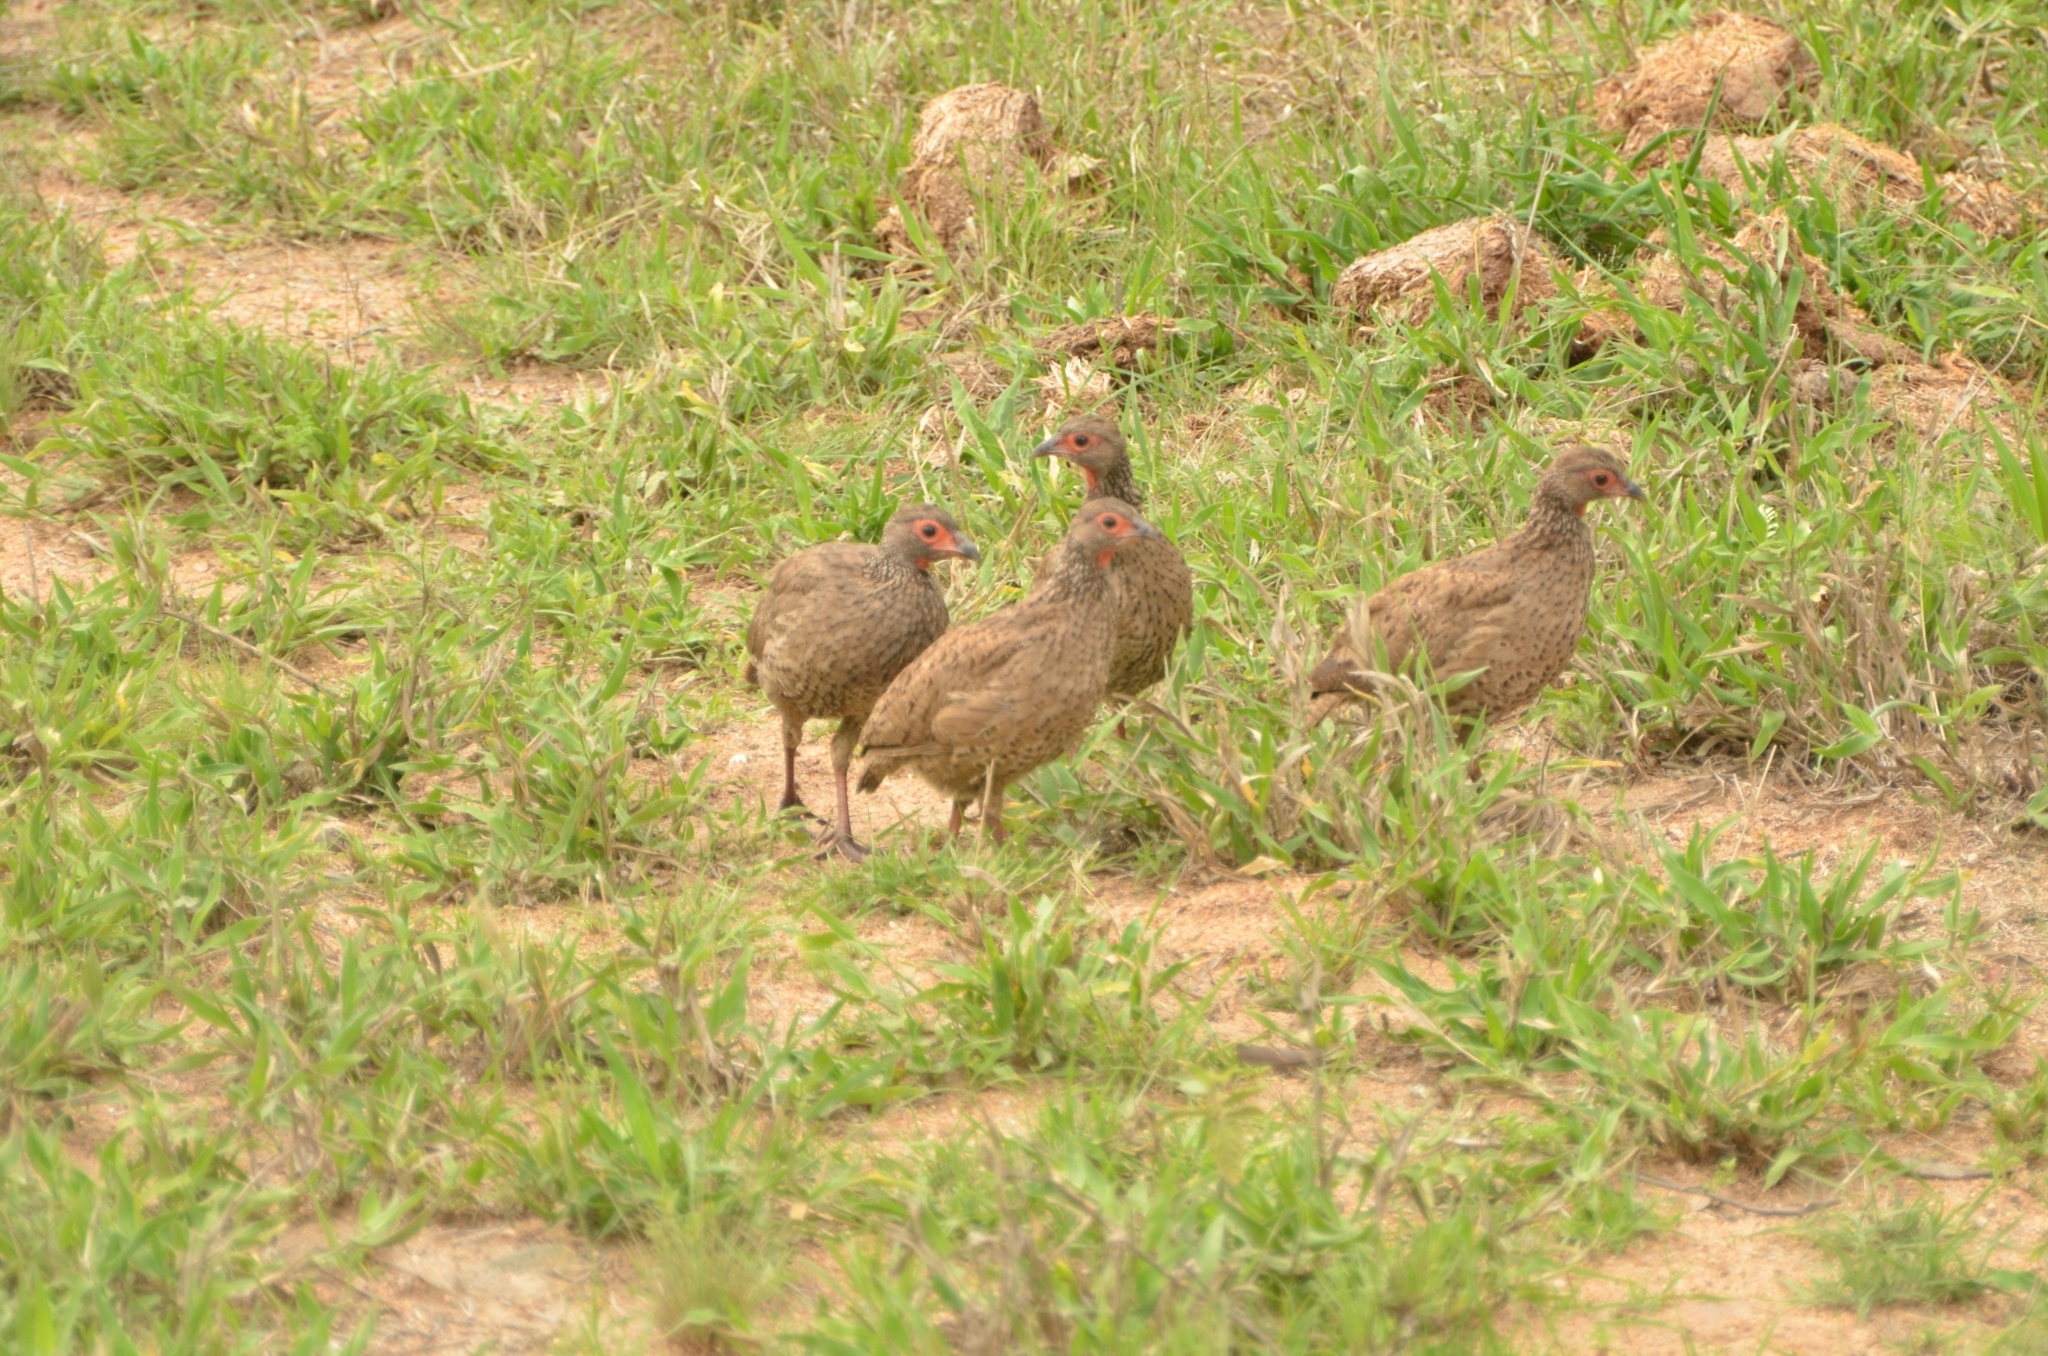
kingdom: Animalia
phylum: Chordata
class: Aves
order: Galliformes
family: Phasianidae
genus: Pternistis
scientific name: Pternistis swainsonii
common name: Swainson's spurfowl
